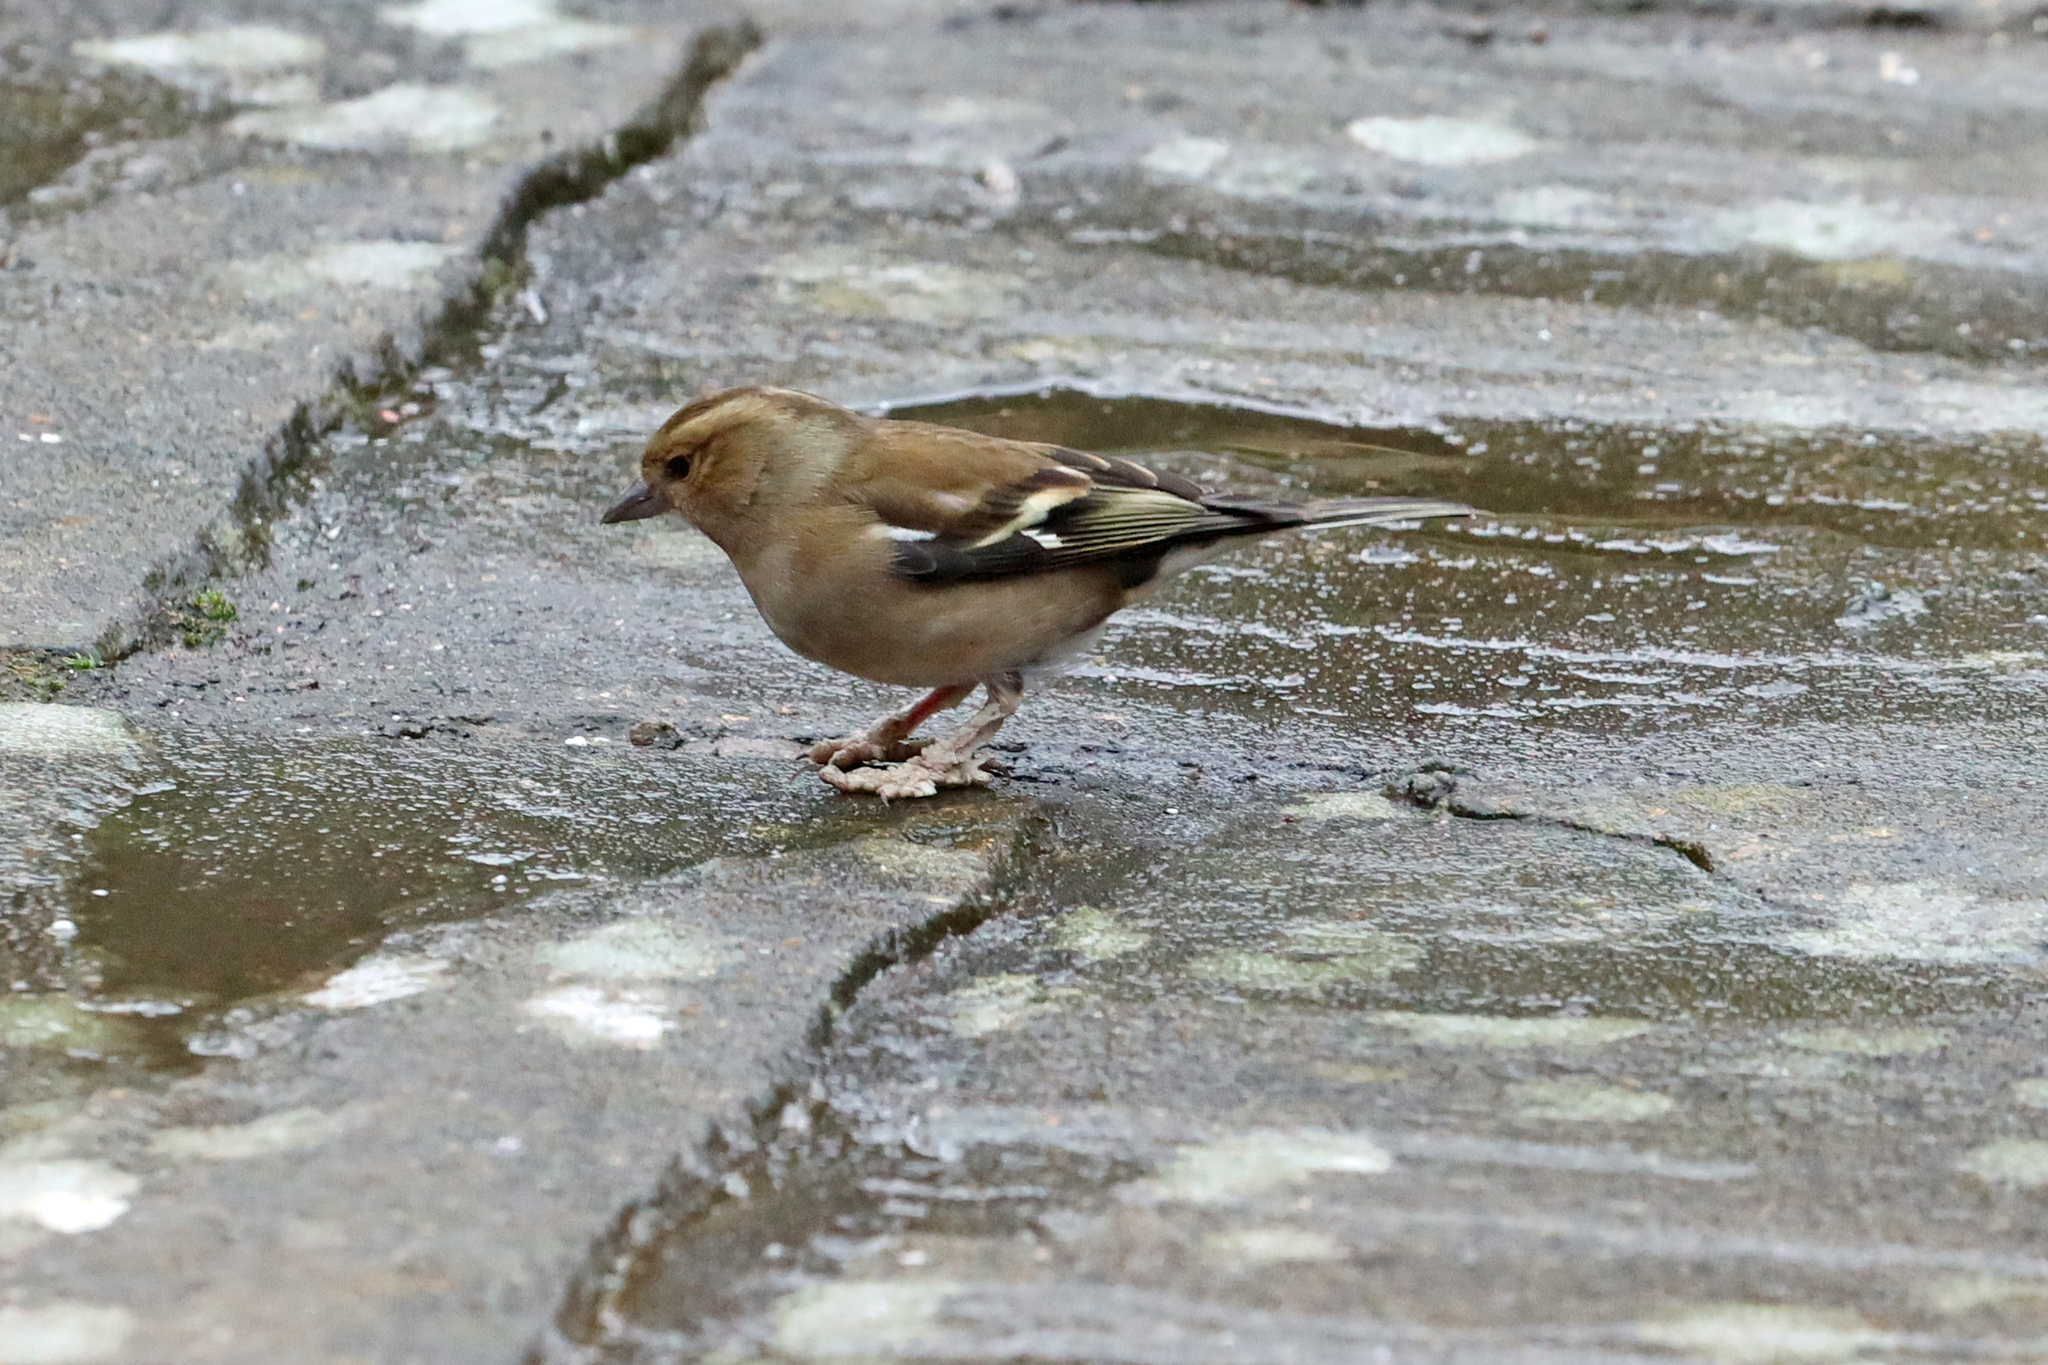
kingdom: Animalia
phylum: Chordata
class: Aves
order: Passeriformes
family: Fringillidae
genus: Fringilla
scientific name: Fringilla coelebs
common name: Common chaffinch
